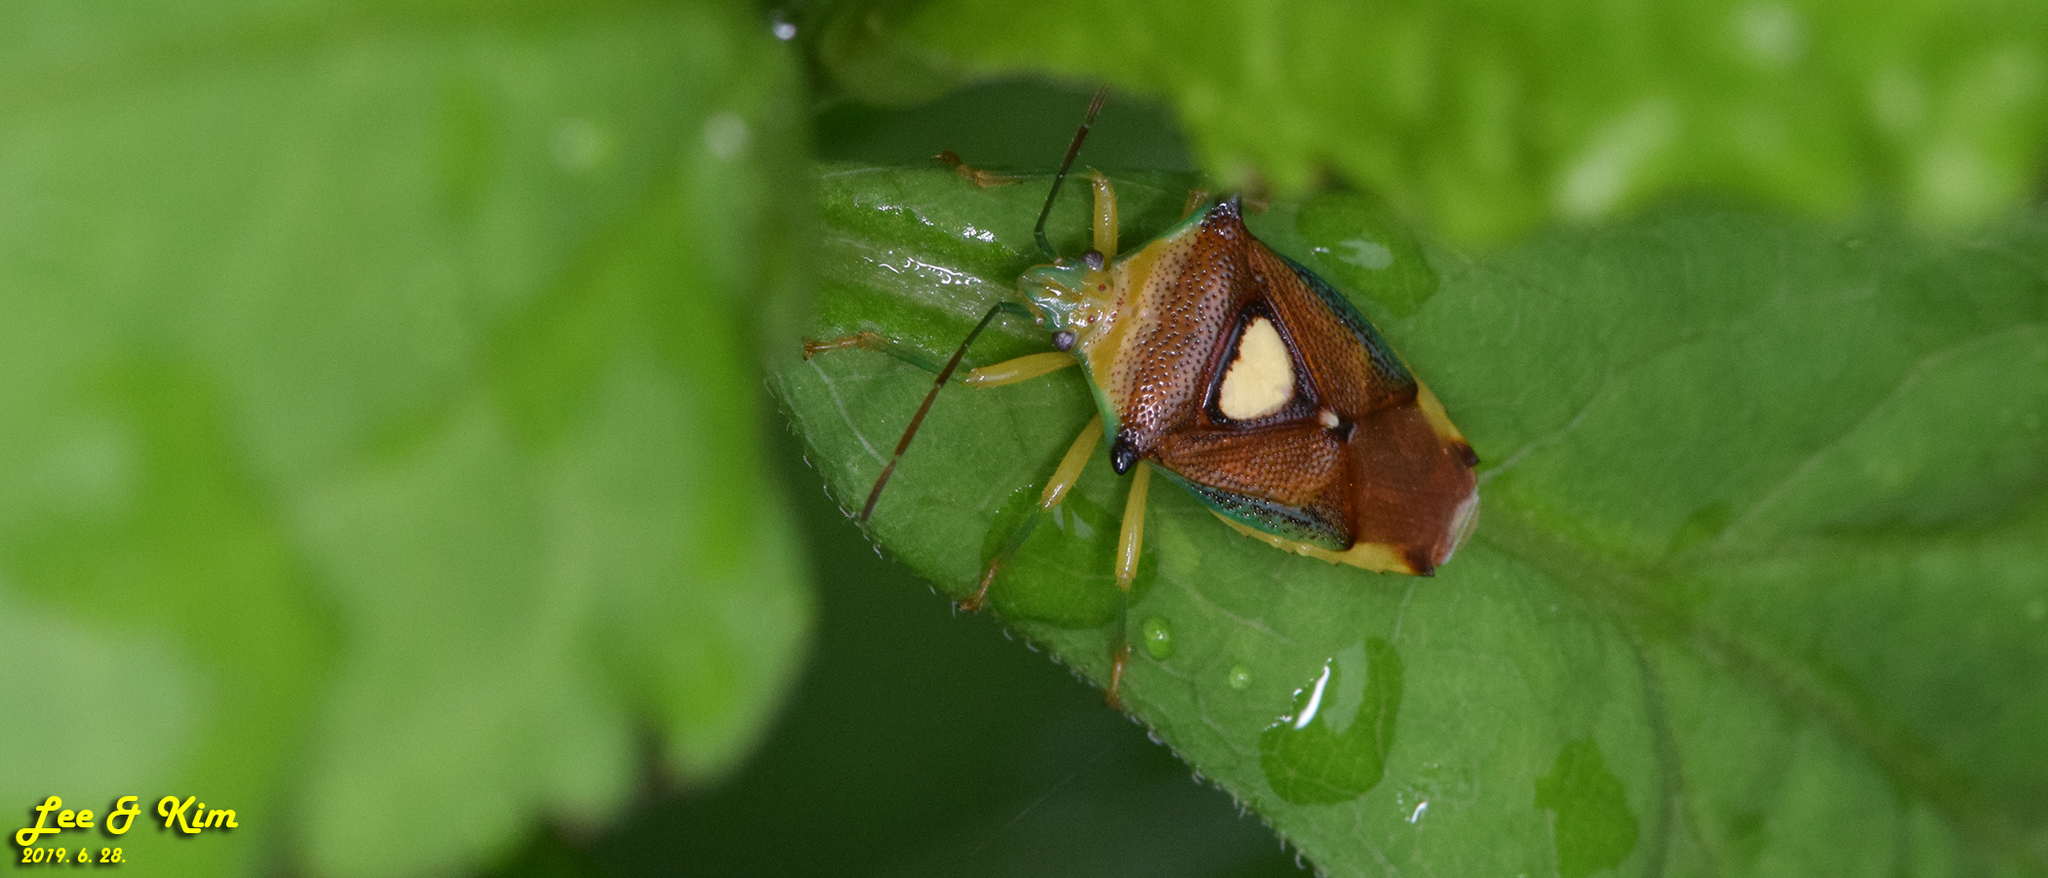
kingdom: Animalia
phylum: Arthropoda
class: Insecta
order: Hemiptera
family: Acanthosomatidae
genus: Sastragala
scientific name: Sastragala esakii
